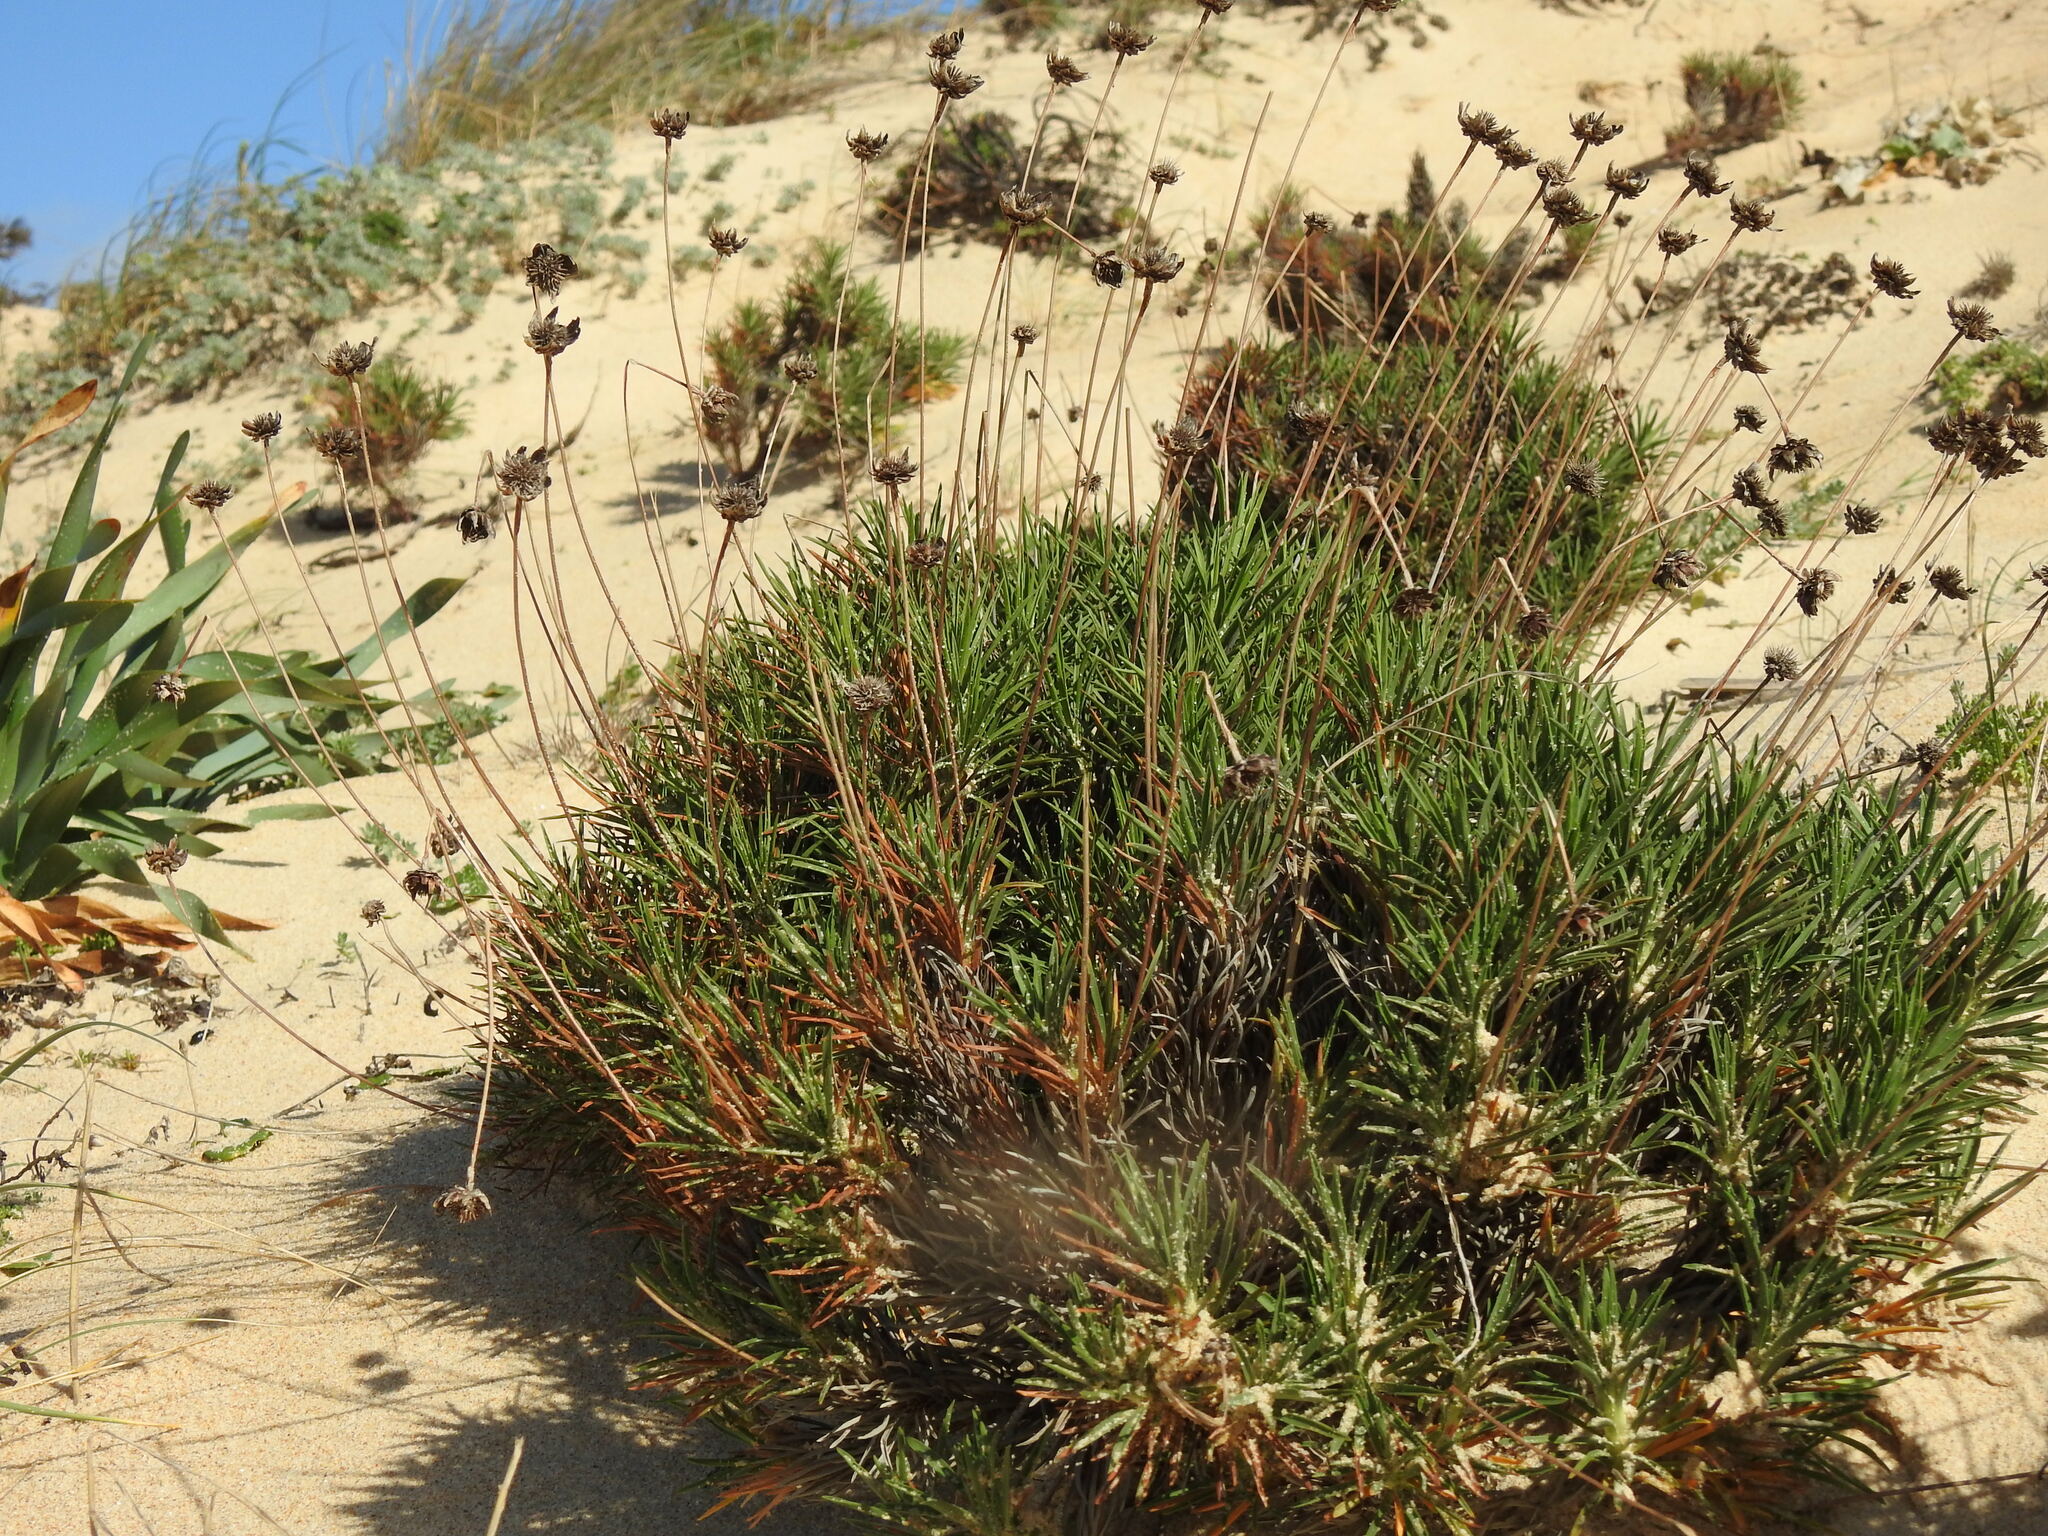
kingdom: Plantae
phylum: Tracheophyta
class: Magnoliopsida
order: Caryophyllales
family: Plumbaginaceae
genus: Armeria
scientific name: Armeria pungens
